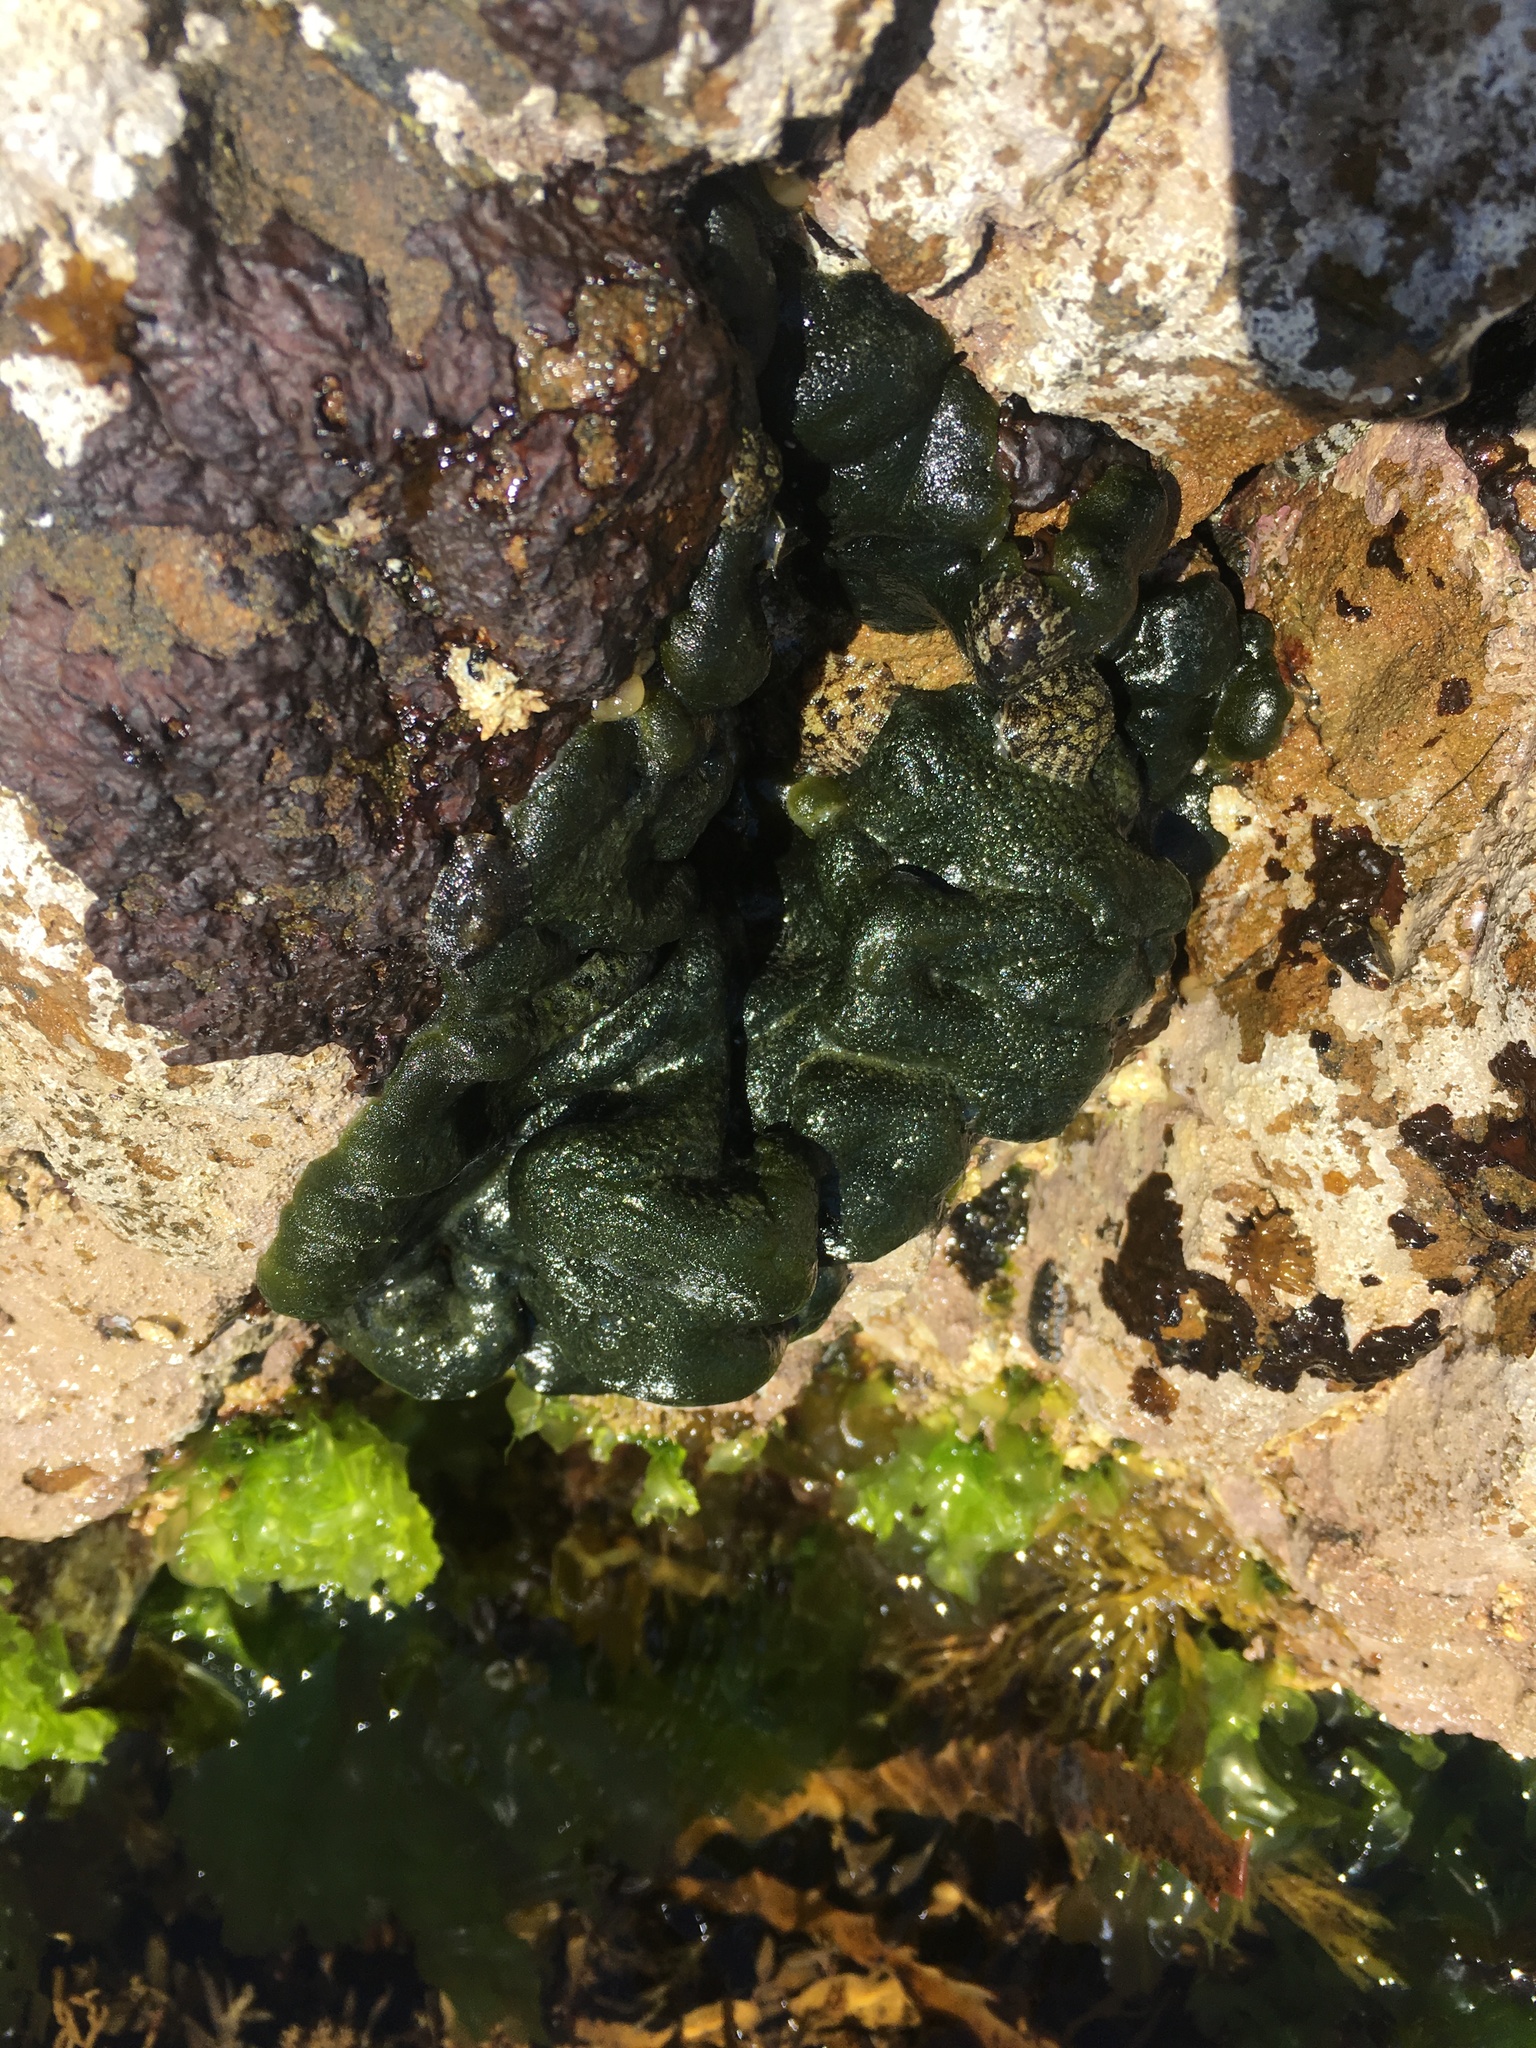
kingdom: Plantae
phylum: Chlorophyta
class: Ulvophyceae
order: Bryopsidales
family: Codiaceae
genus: Codium
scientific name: Codium convolutum
